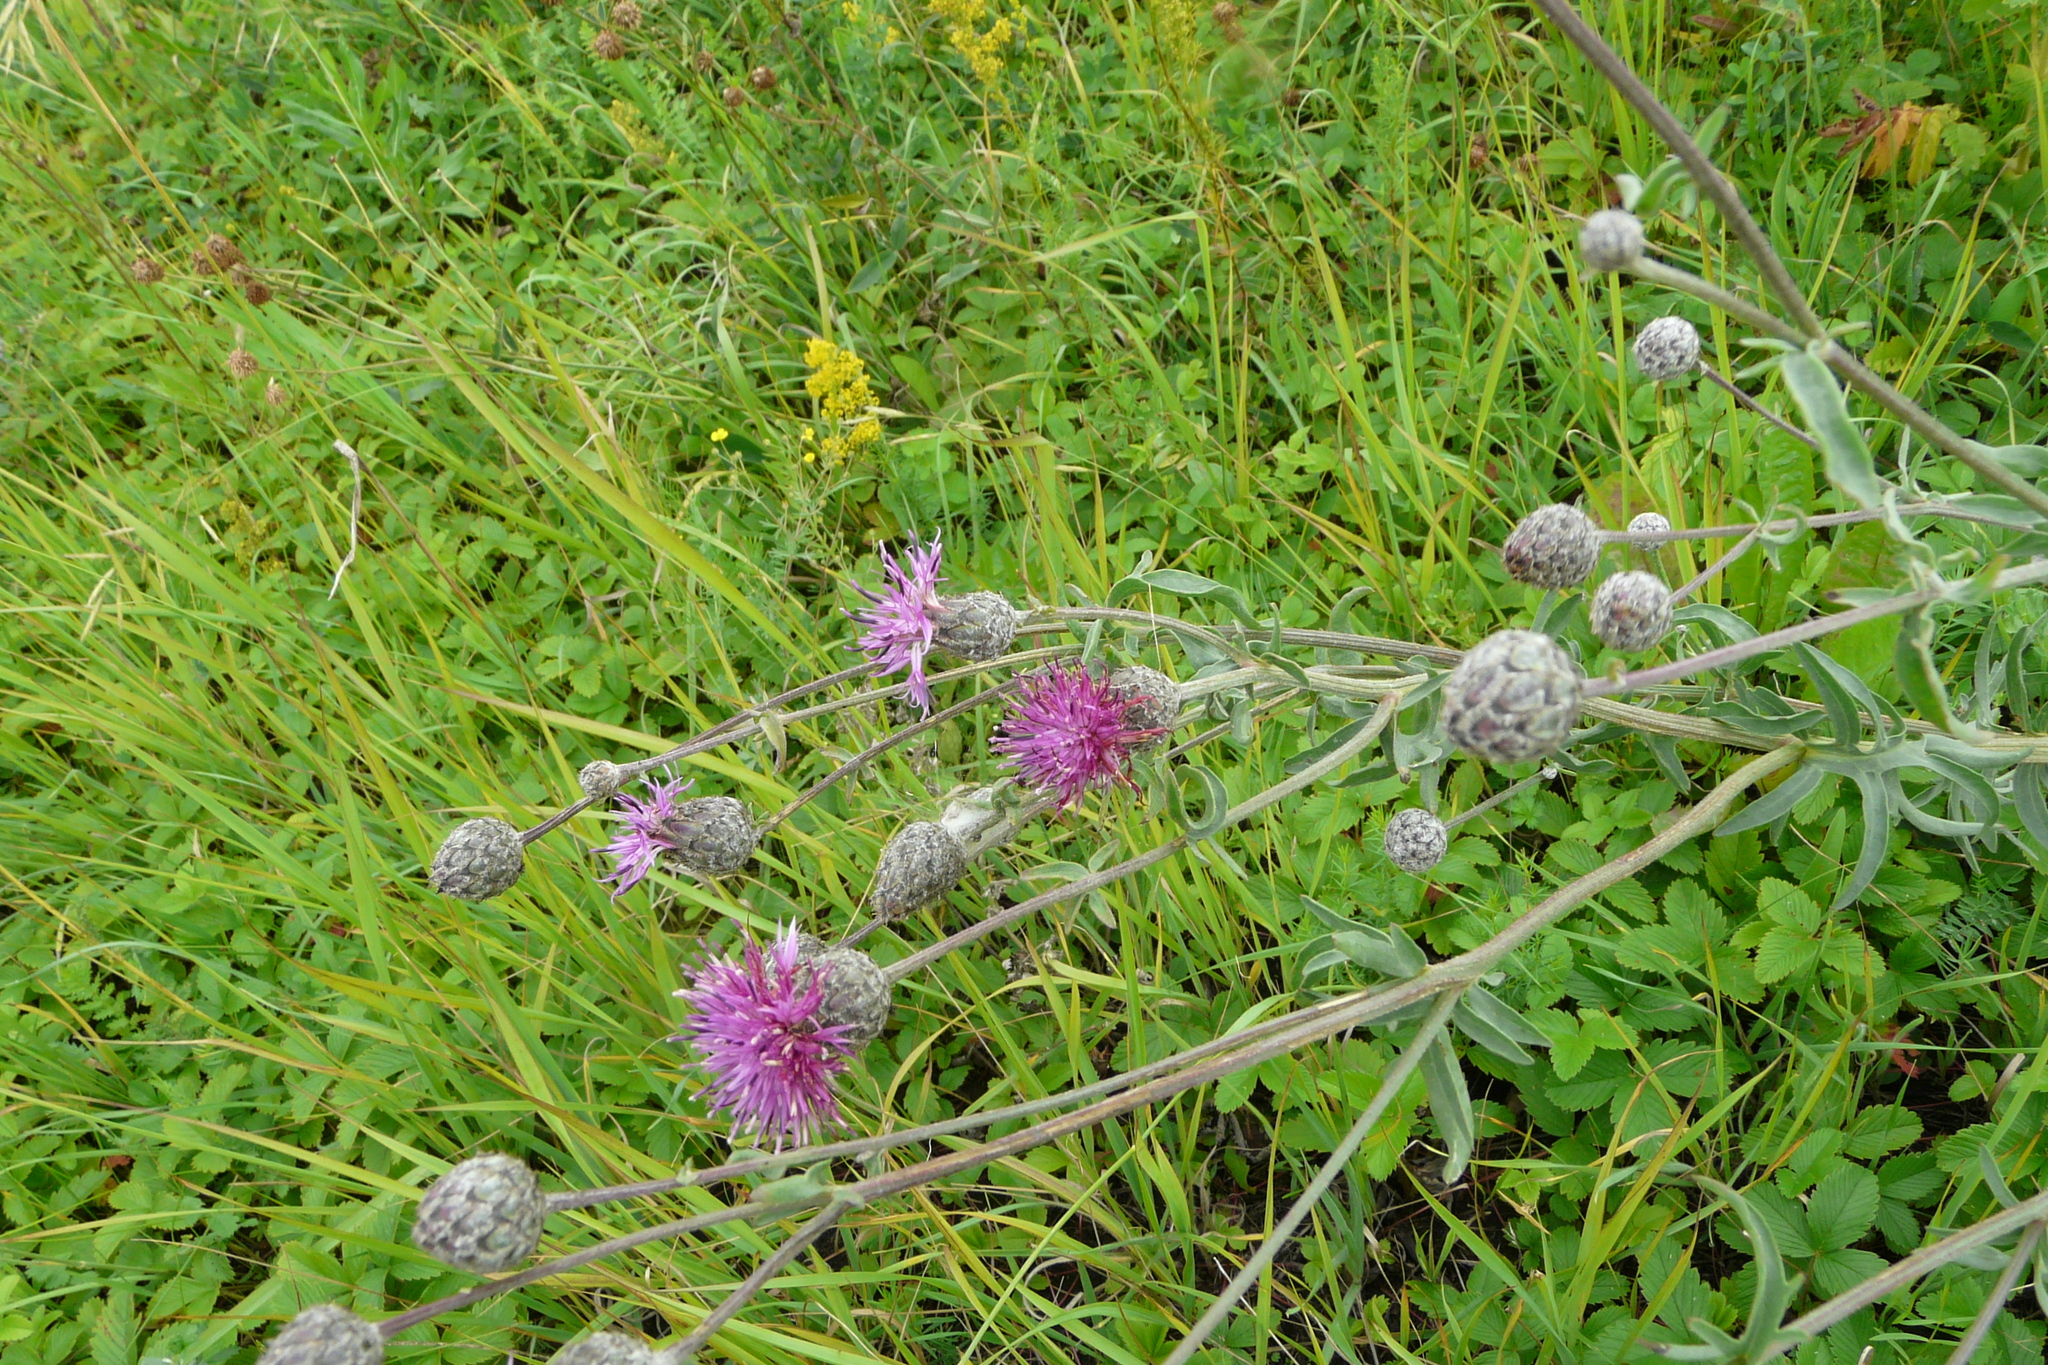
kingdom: Plantae
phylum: Tracheophyta
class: Magnoliopsida
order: Asterales
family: Asteraceae
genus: Centaurea
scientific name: Centaurea scabiosa
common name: Greater knapweed
